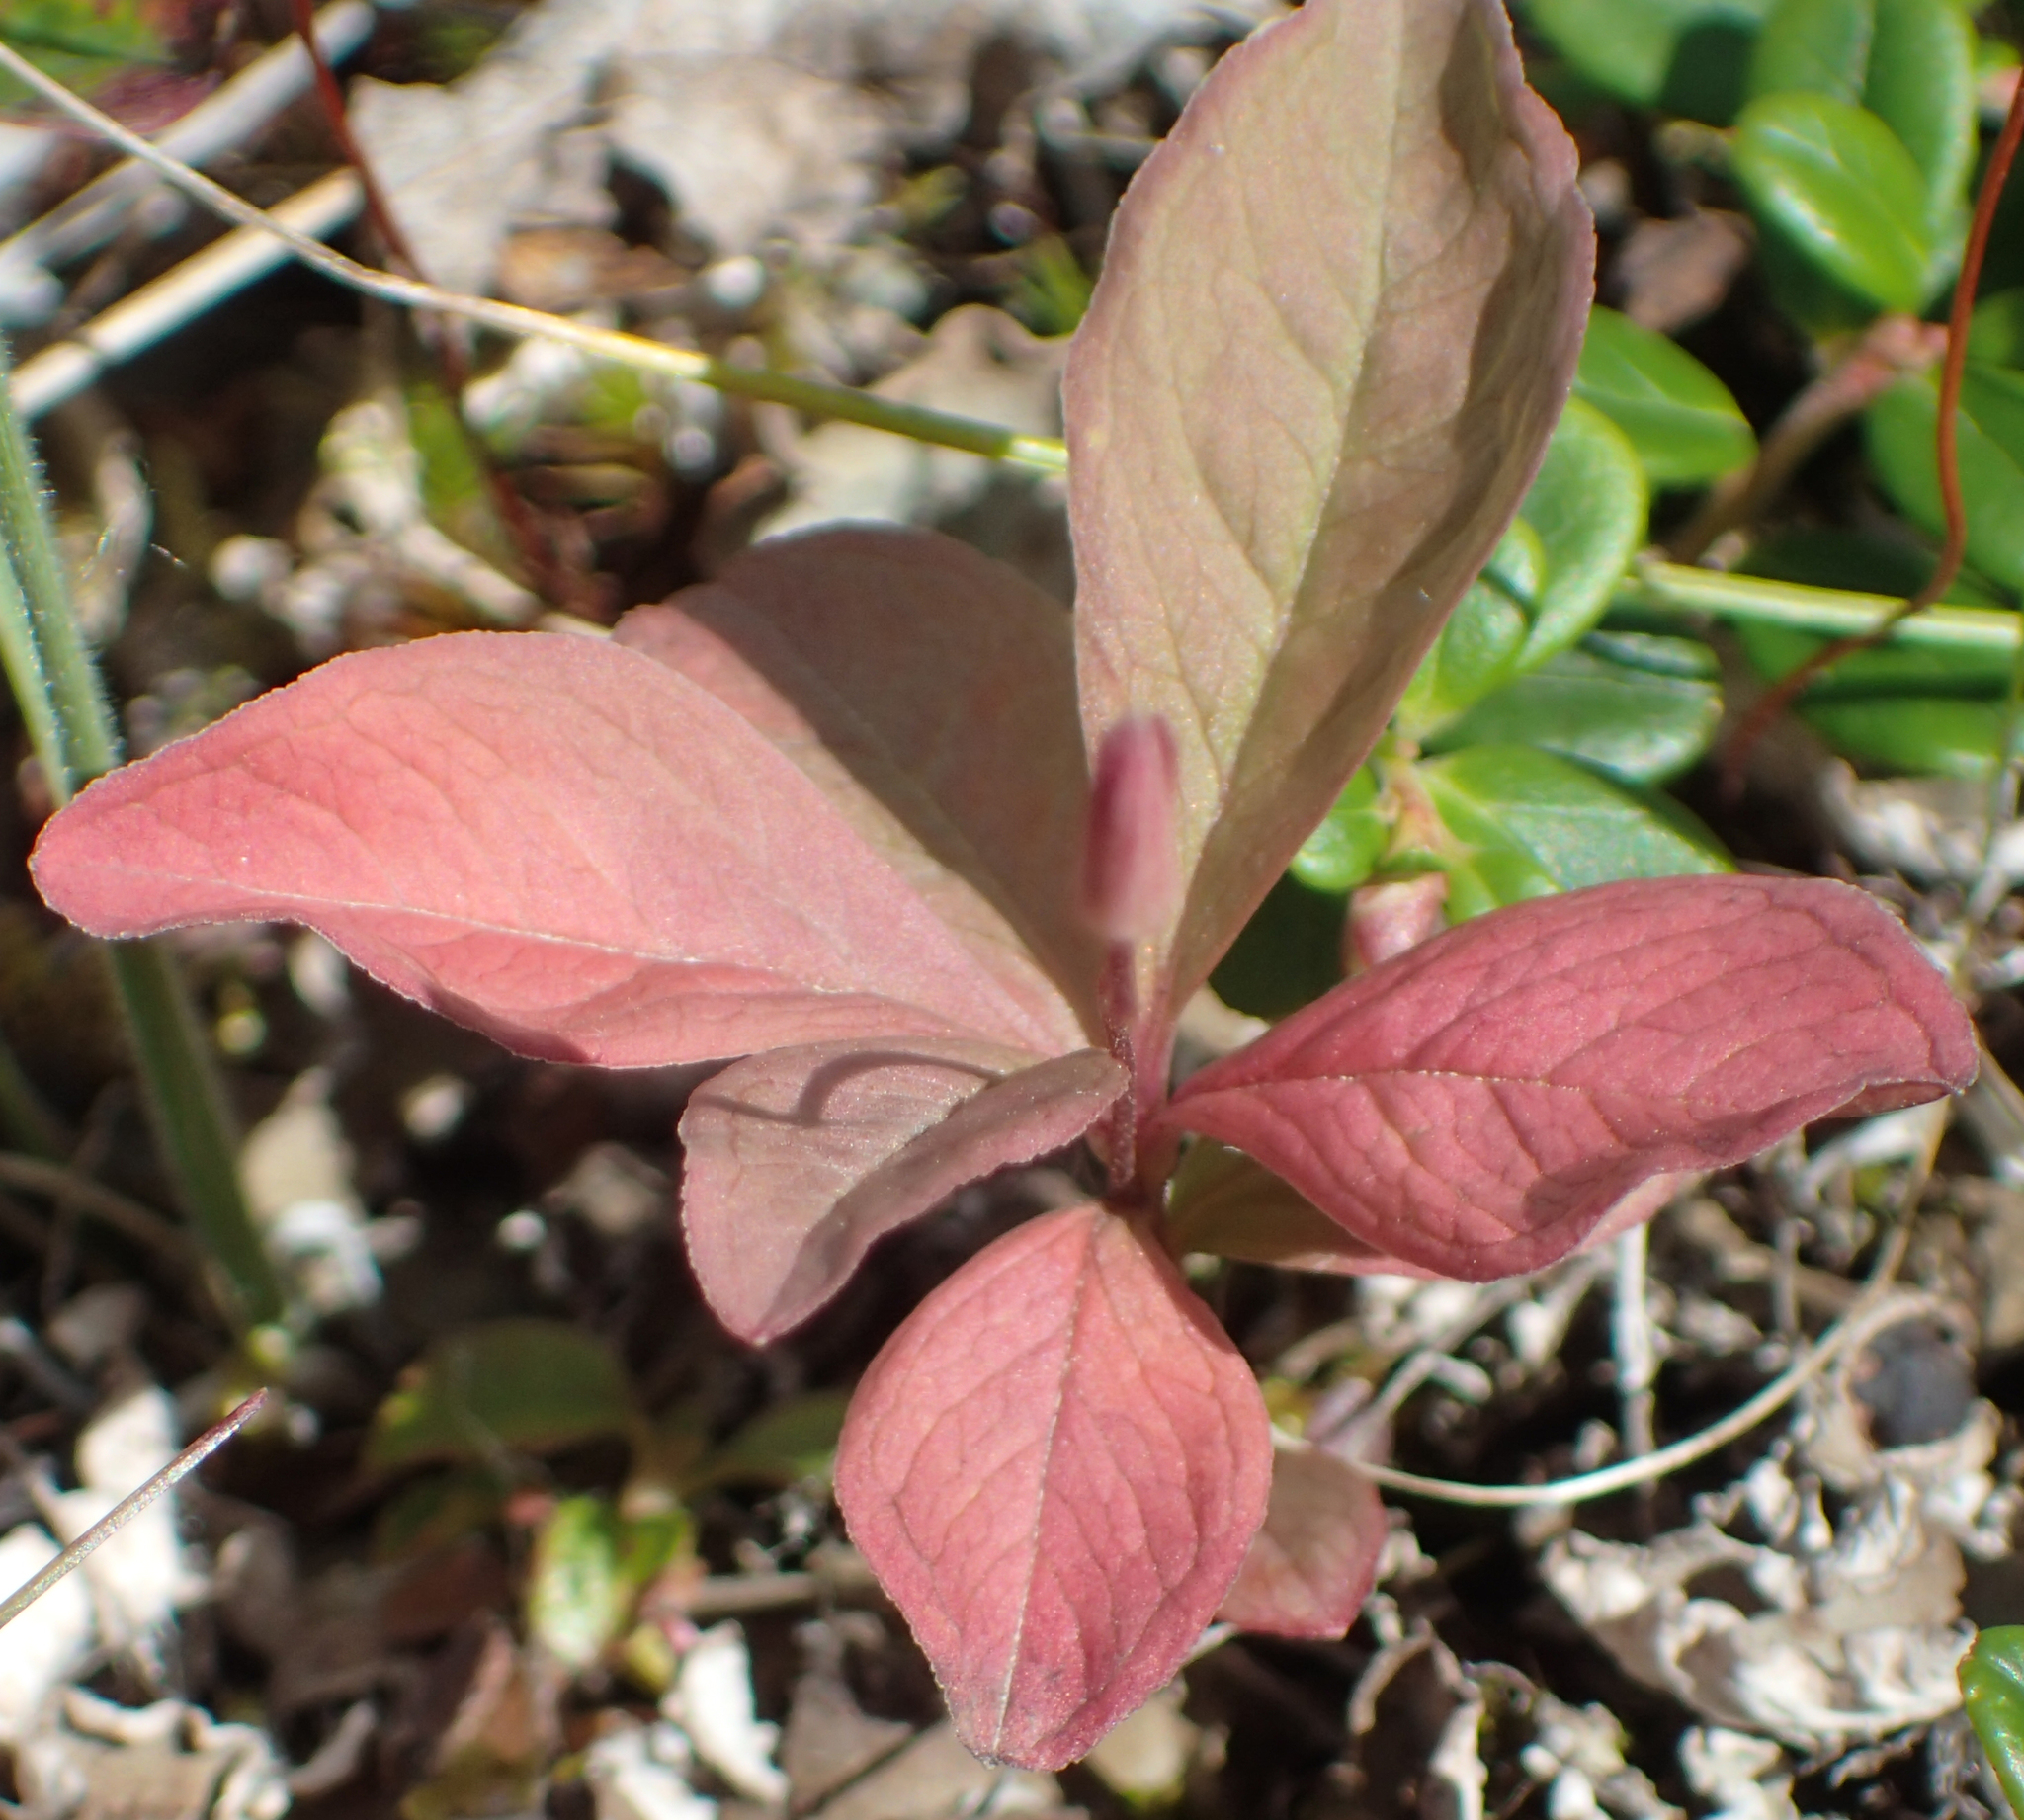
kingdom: Plantae
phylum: Tracheophyta
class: Magnoliopsida
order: Ericales
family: Primulaceae
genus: Lysimachia
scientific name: Lysimachia europaea
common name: Arctic starflower
